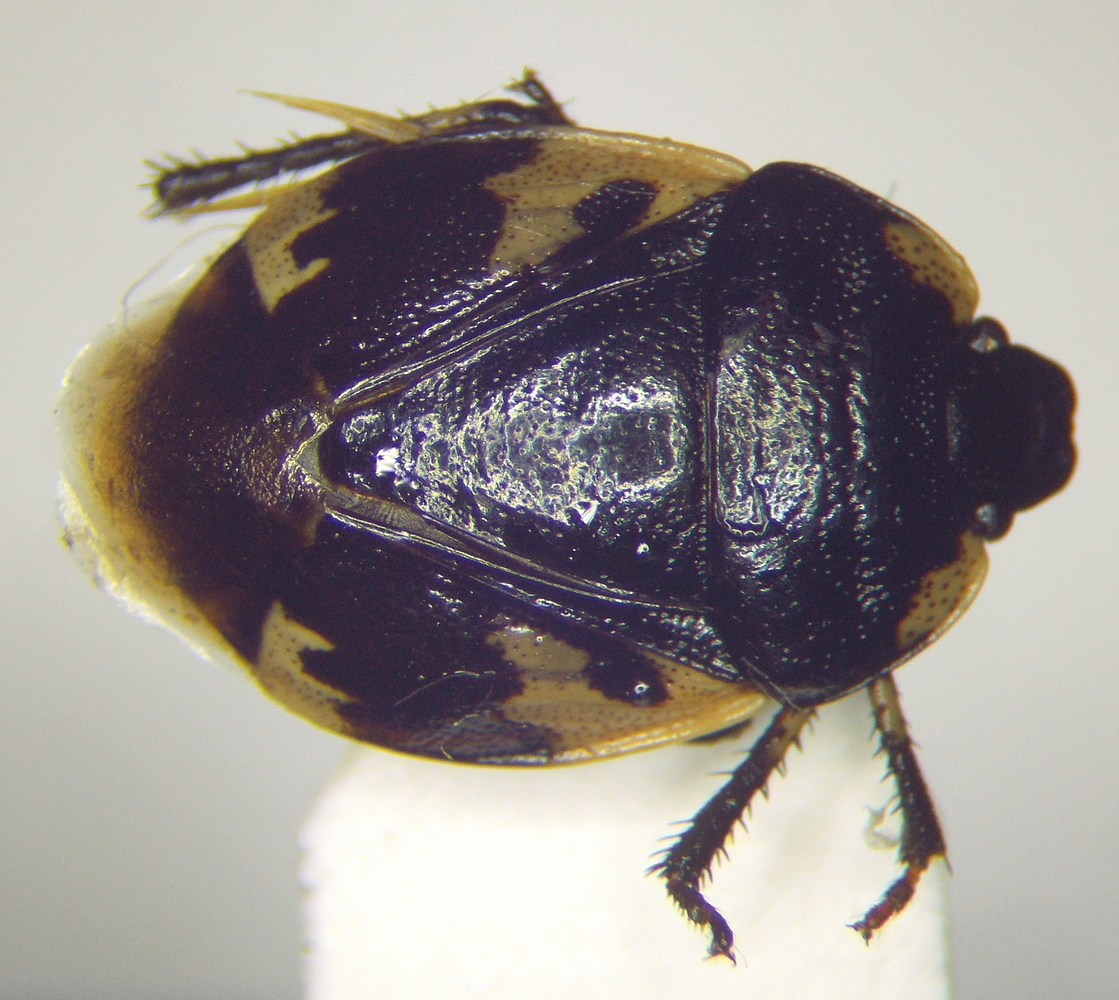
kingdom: Animalia
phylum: Arthropoda
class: Insecta
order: Hemiptera
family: Cydnidae
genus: Tritomegas
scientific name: Tritomegas bicolor
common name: Pied shieldbug
